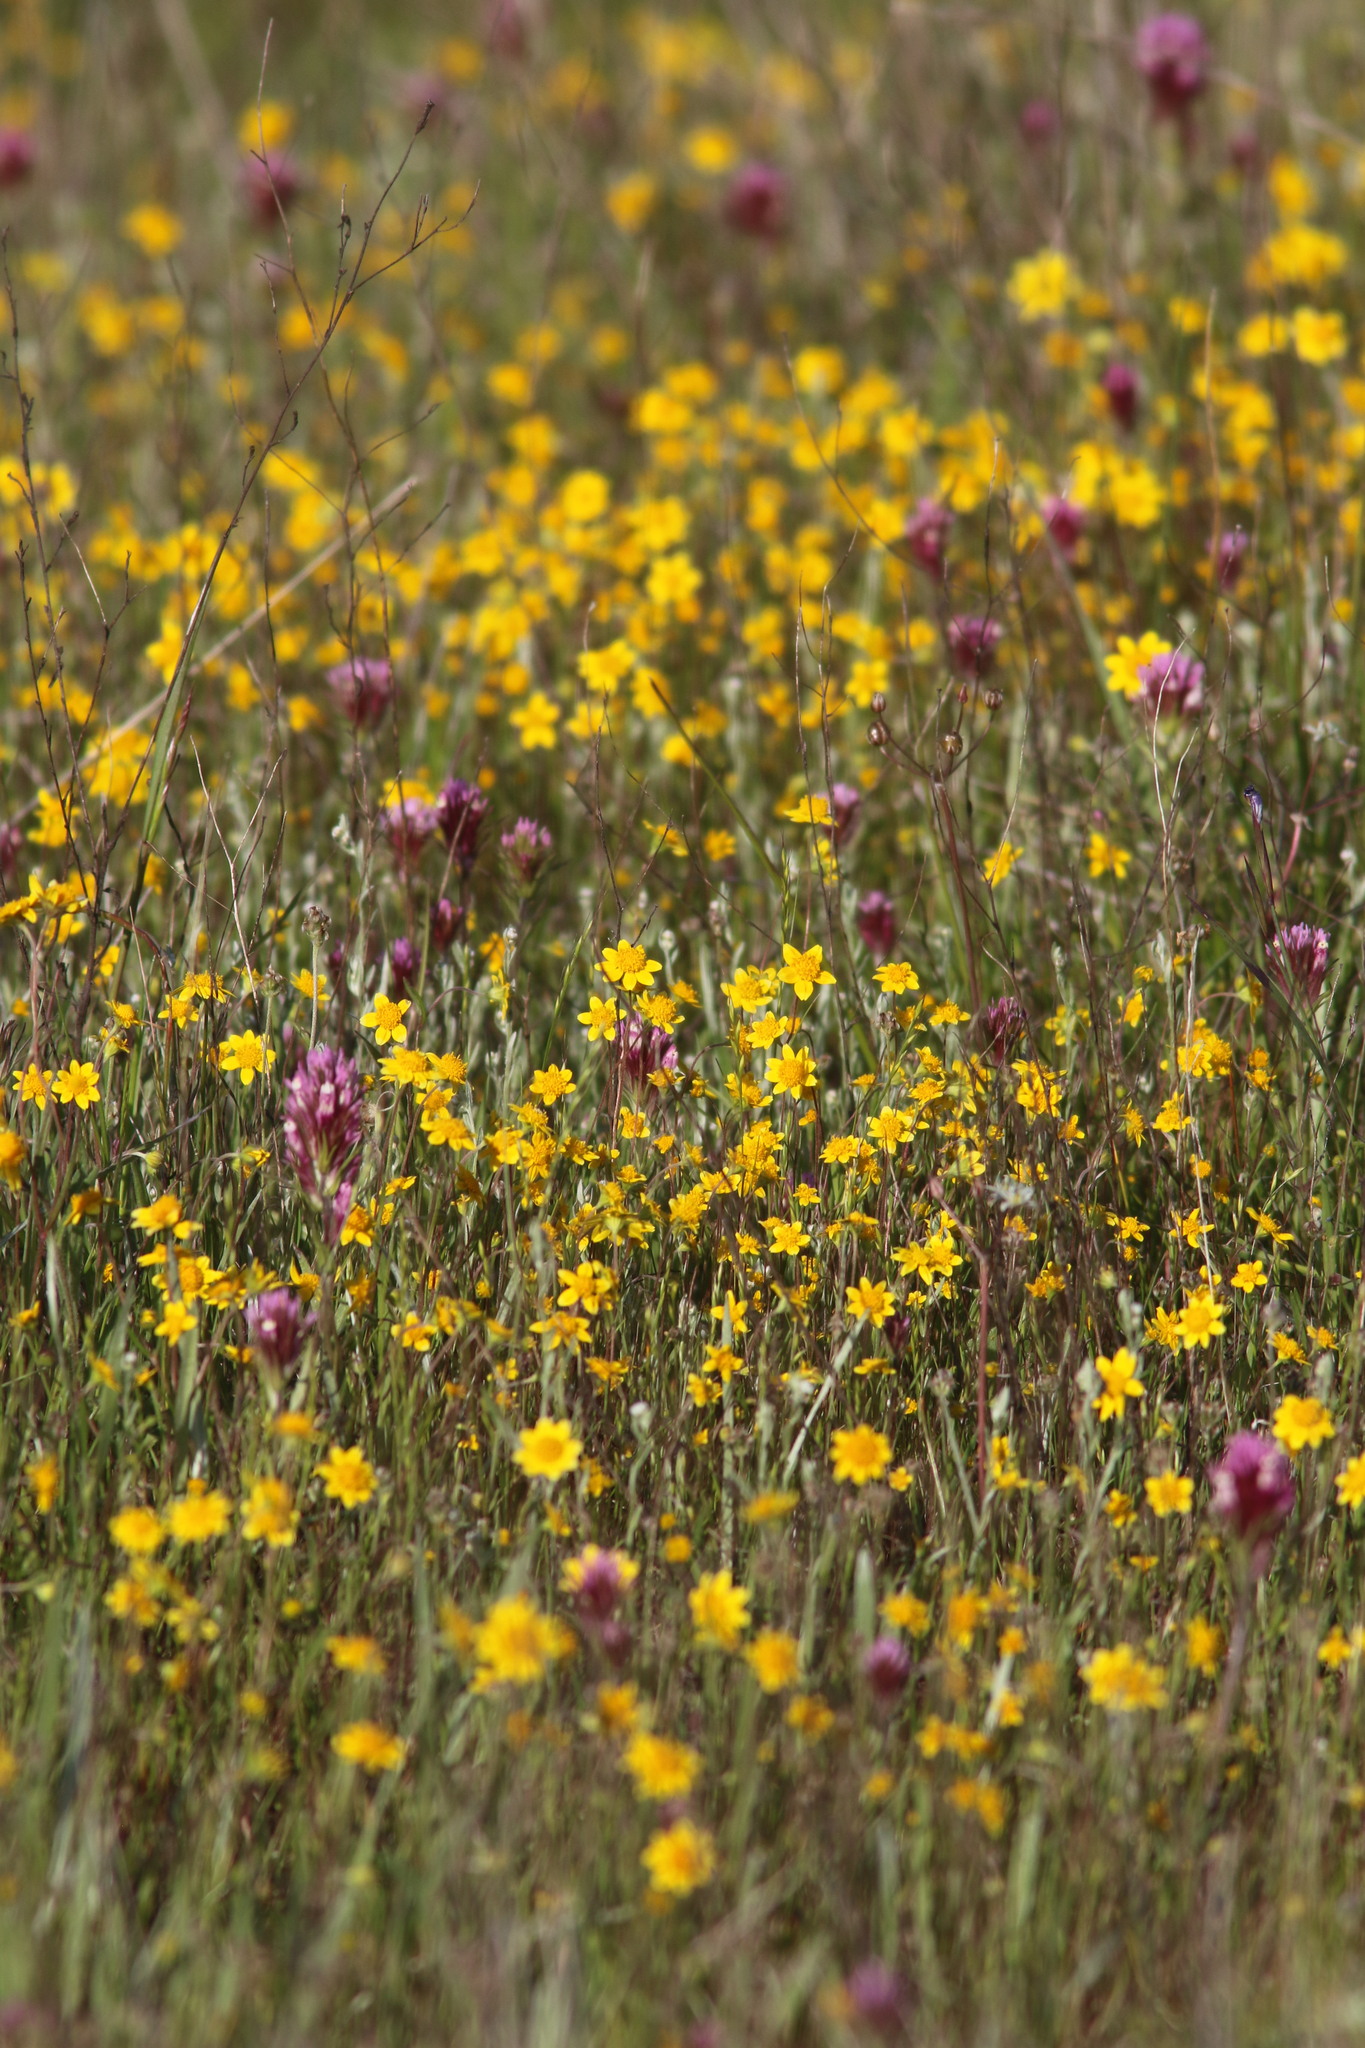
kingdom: Plantae
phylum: Tracheophyta
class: Magnoliopsida
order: Asterales
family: Asteraceae
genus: Lasthenia
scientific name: Lasthenia californica
